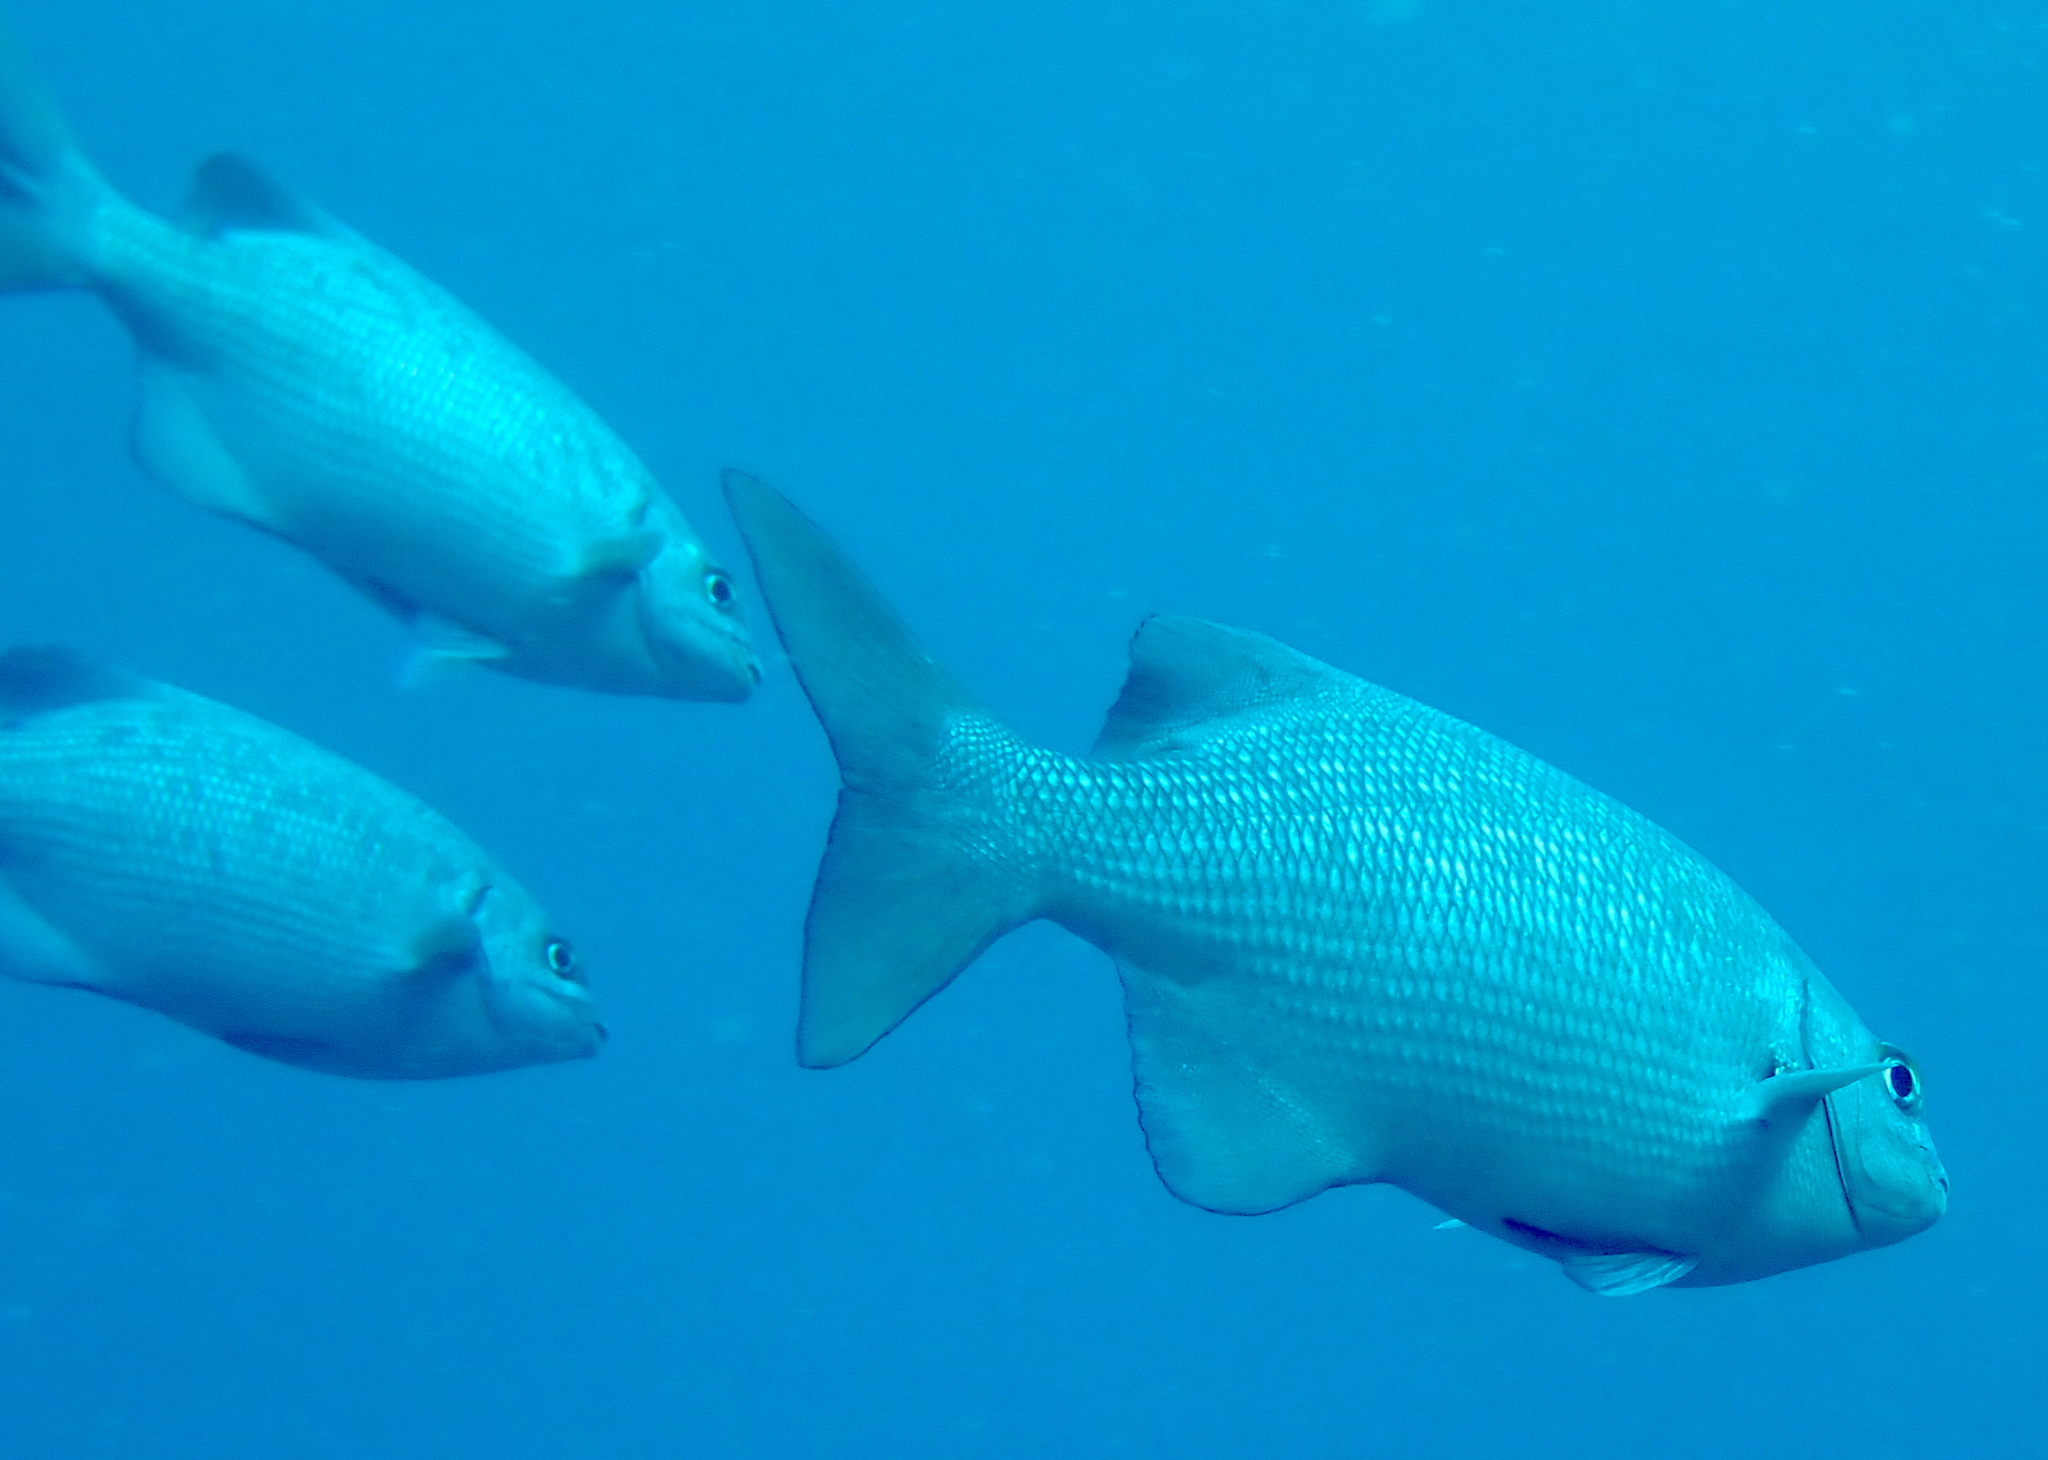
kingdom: Animalia
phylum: Chordata
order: Perciformes
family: Kyphosidae
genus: Kyphosus
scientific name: Kyphosus cinerascens
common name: Topsail drummer
